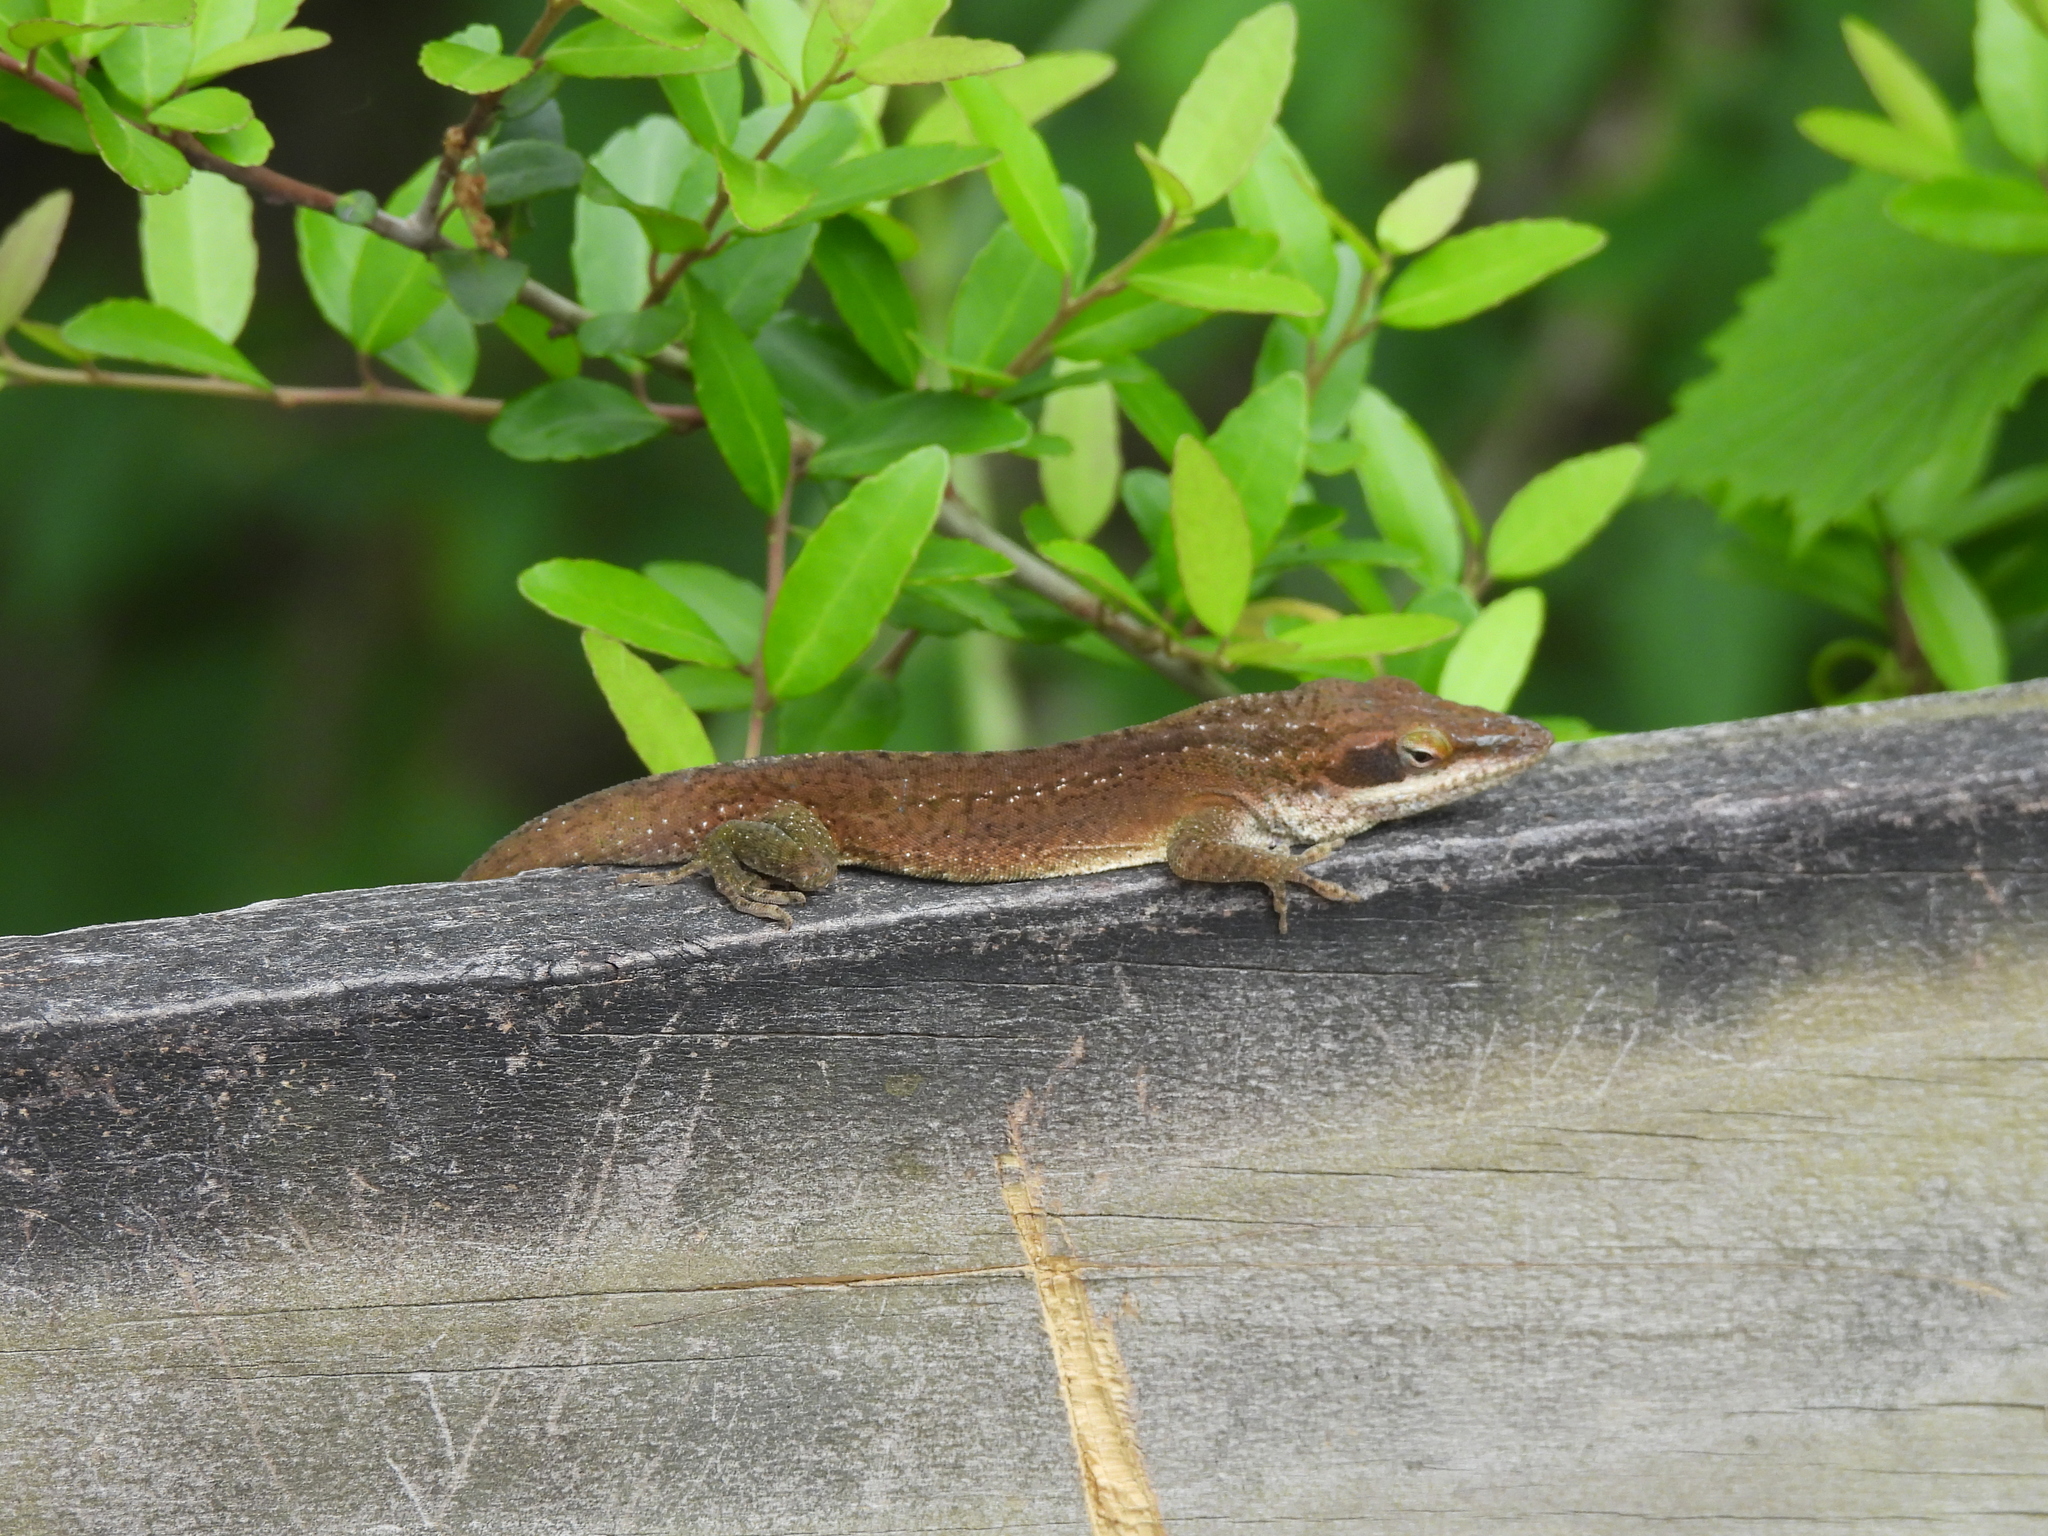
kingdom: Animalia
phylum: Chordata
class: Squamata
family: Dactyloidae
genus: Anolis
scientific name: Anolis carolinensis
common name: Green anole
